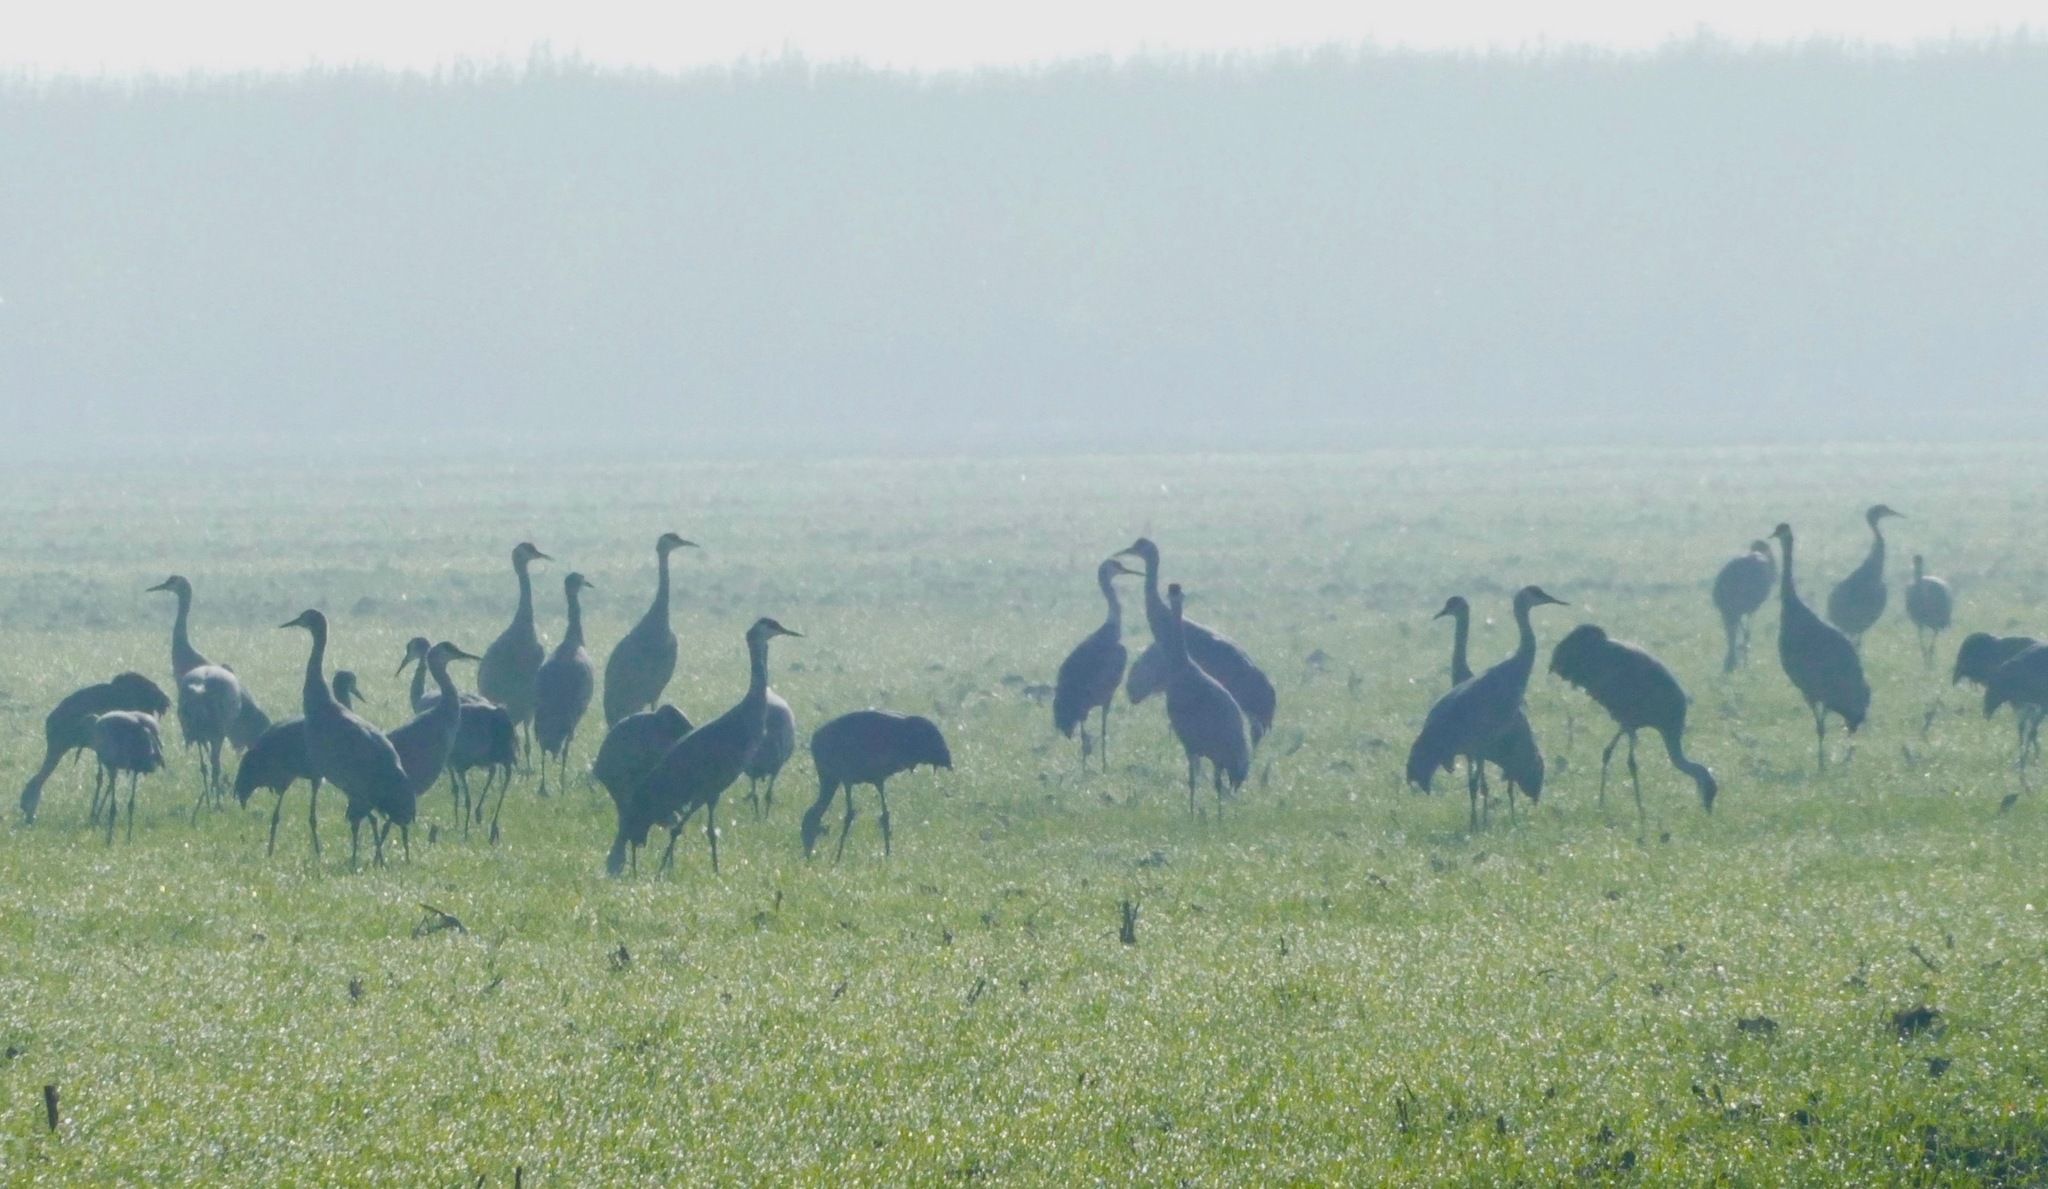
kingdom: Animalia
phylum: Chordata
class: Aves
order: Gruiformes
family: Gruidae
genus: Grus
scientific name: Grus canadensis
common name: Sandhill crane
